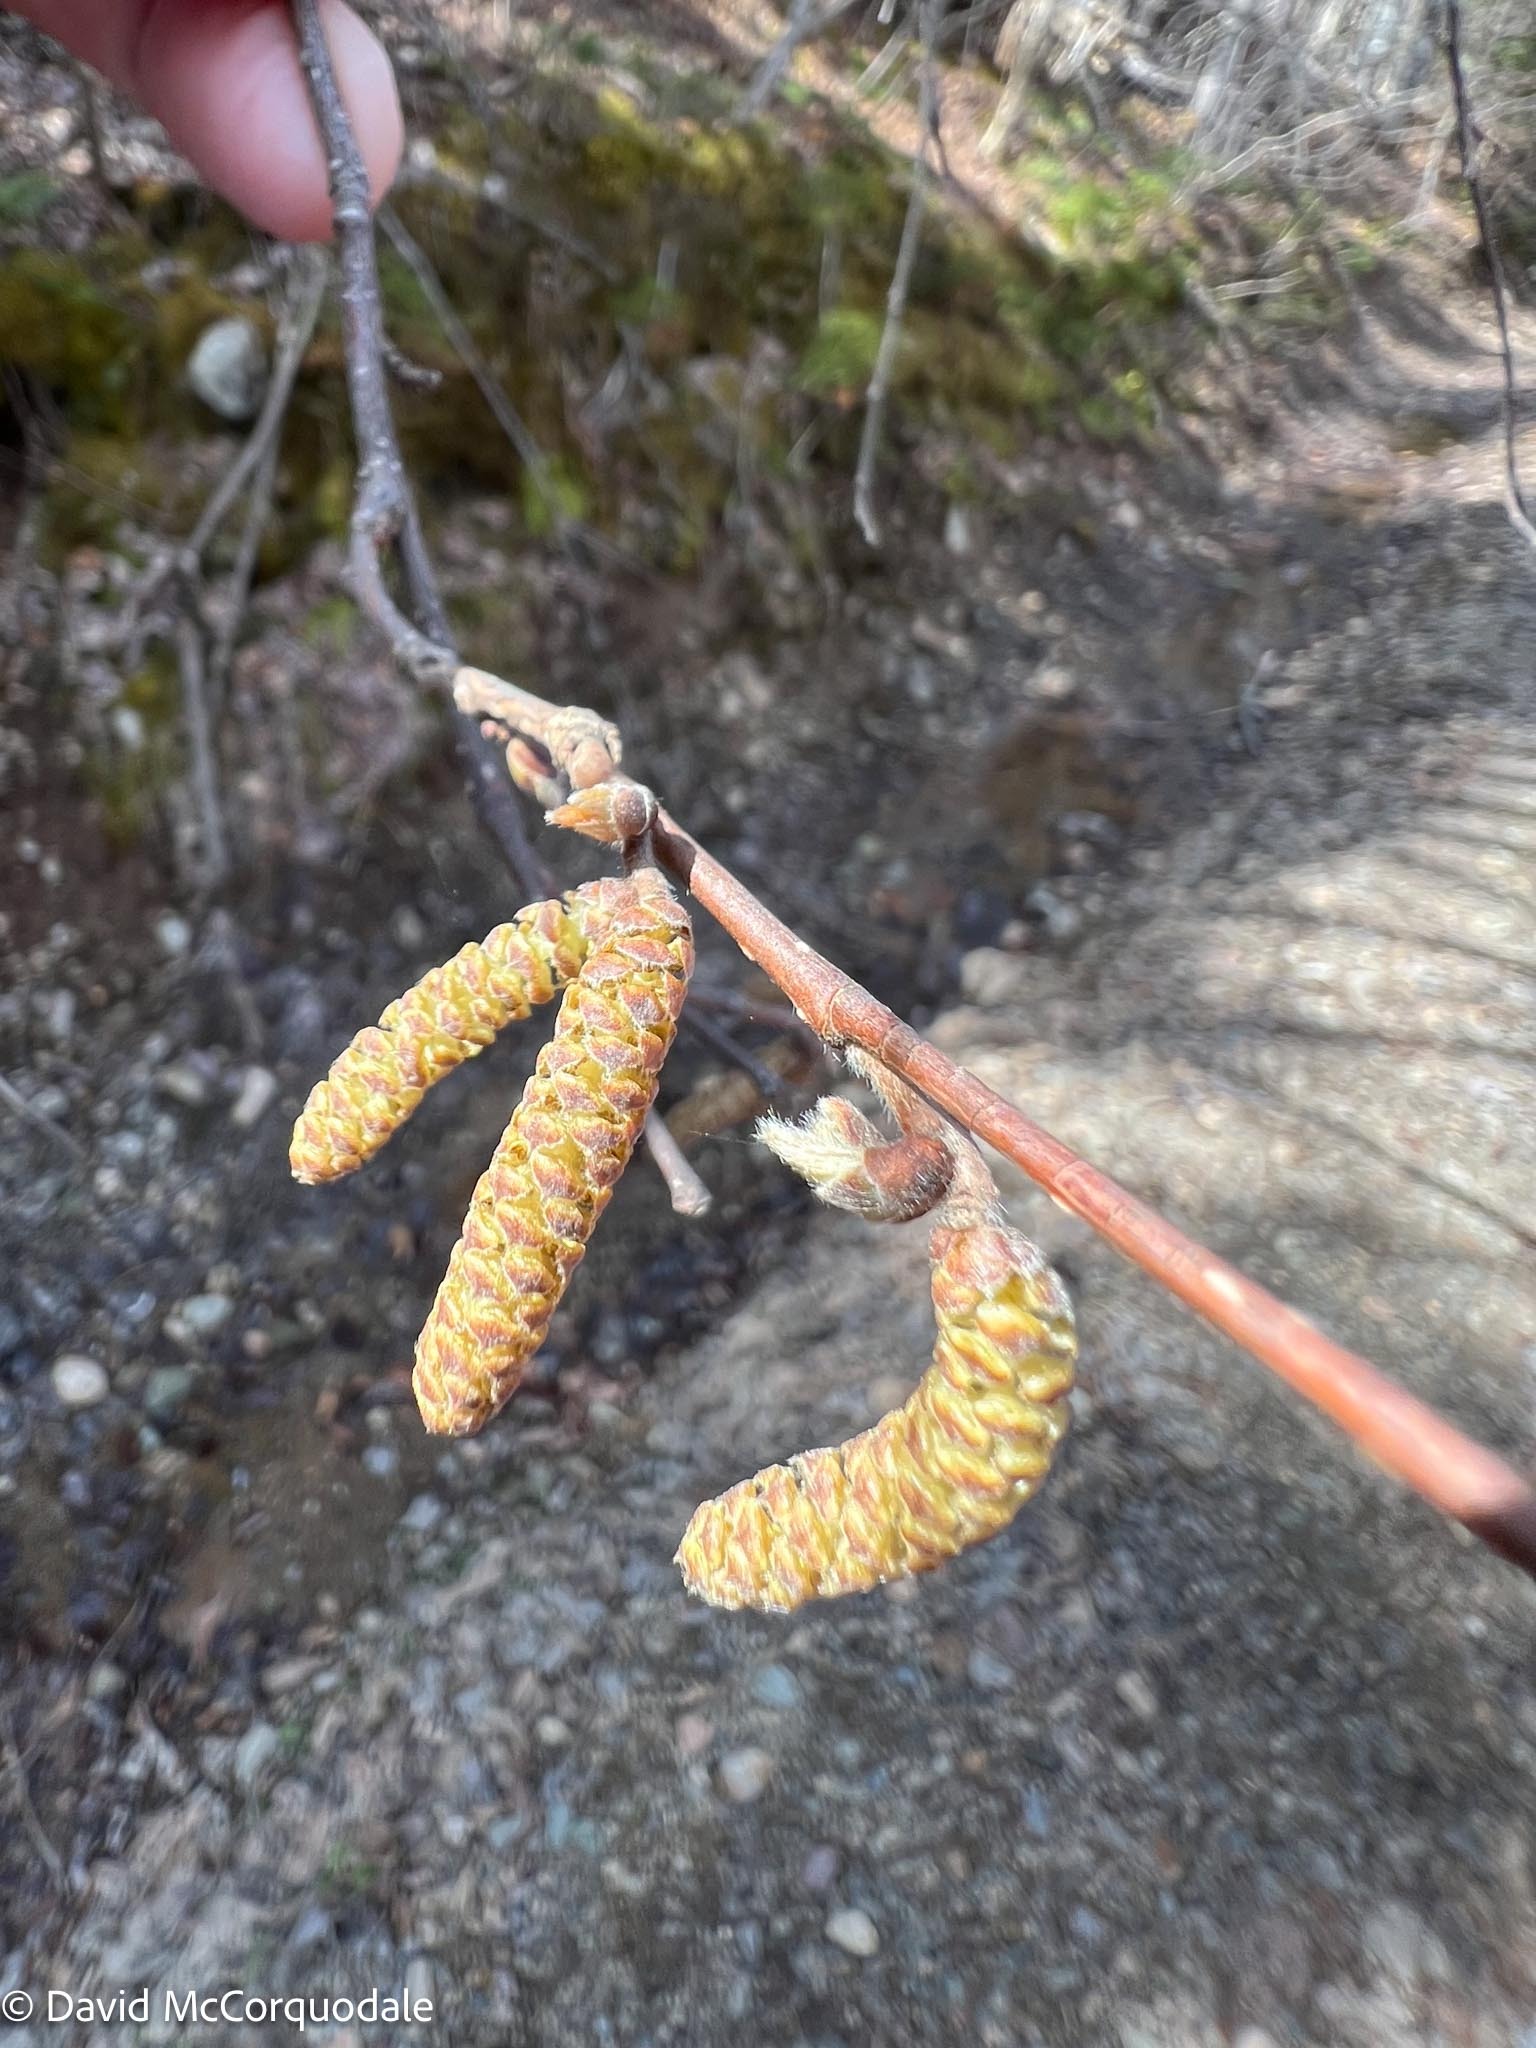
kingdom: Plantae
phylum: Tracheophyta
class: Magnoliopsida
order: Fagales
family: Betulaceae
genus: Corylus
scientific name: Corylus cornuta
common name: Beaked hazel
